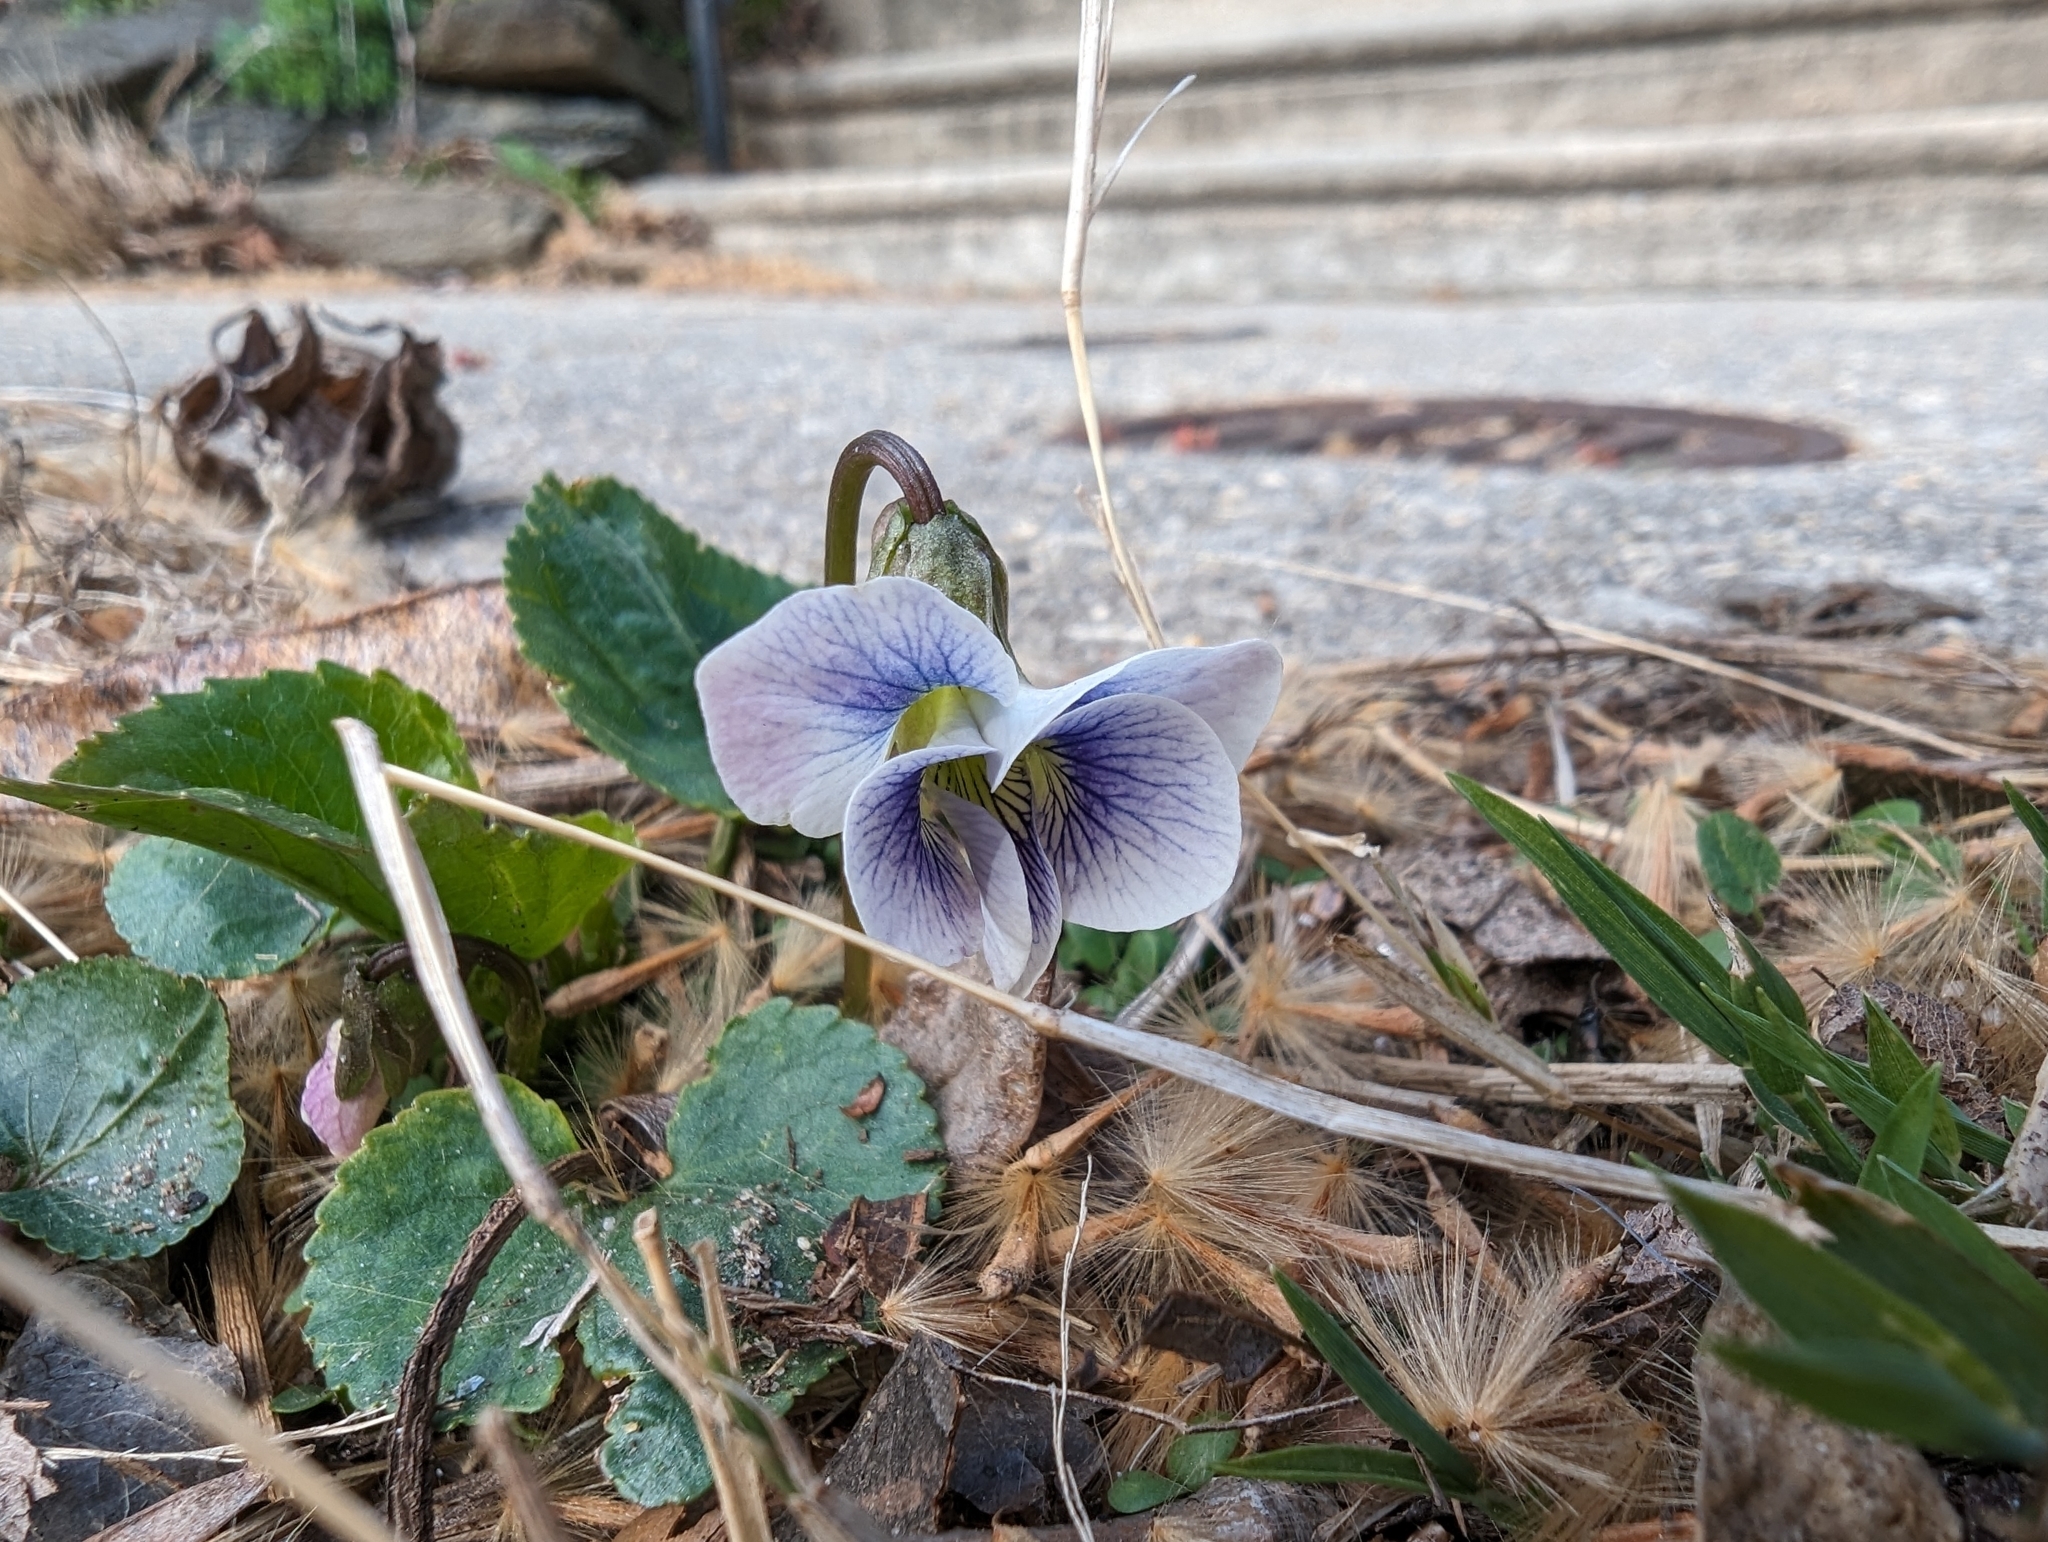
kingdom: Plantae
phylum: Tracheophyta
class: Magnoliopsida
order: Malpighiales
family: Violaceae
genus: Viola
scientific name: Viola sororia
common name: Dooryard violet
